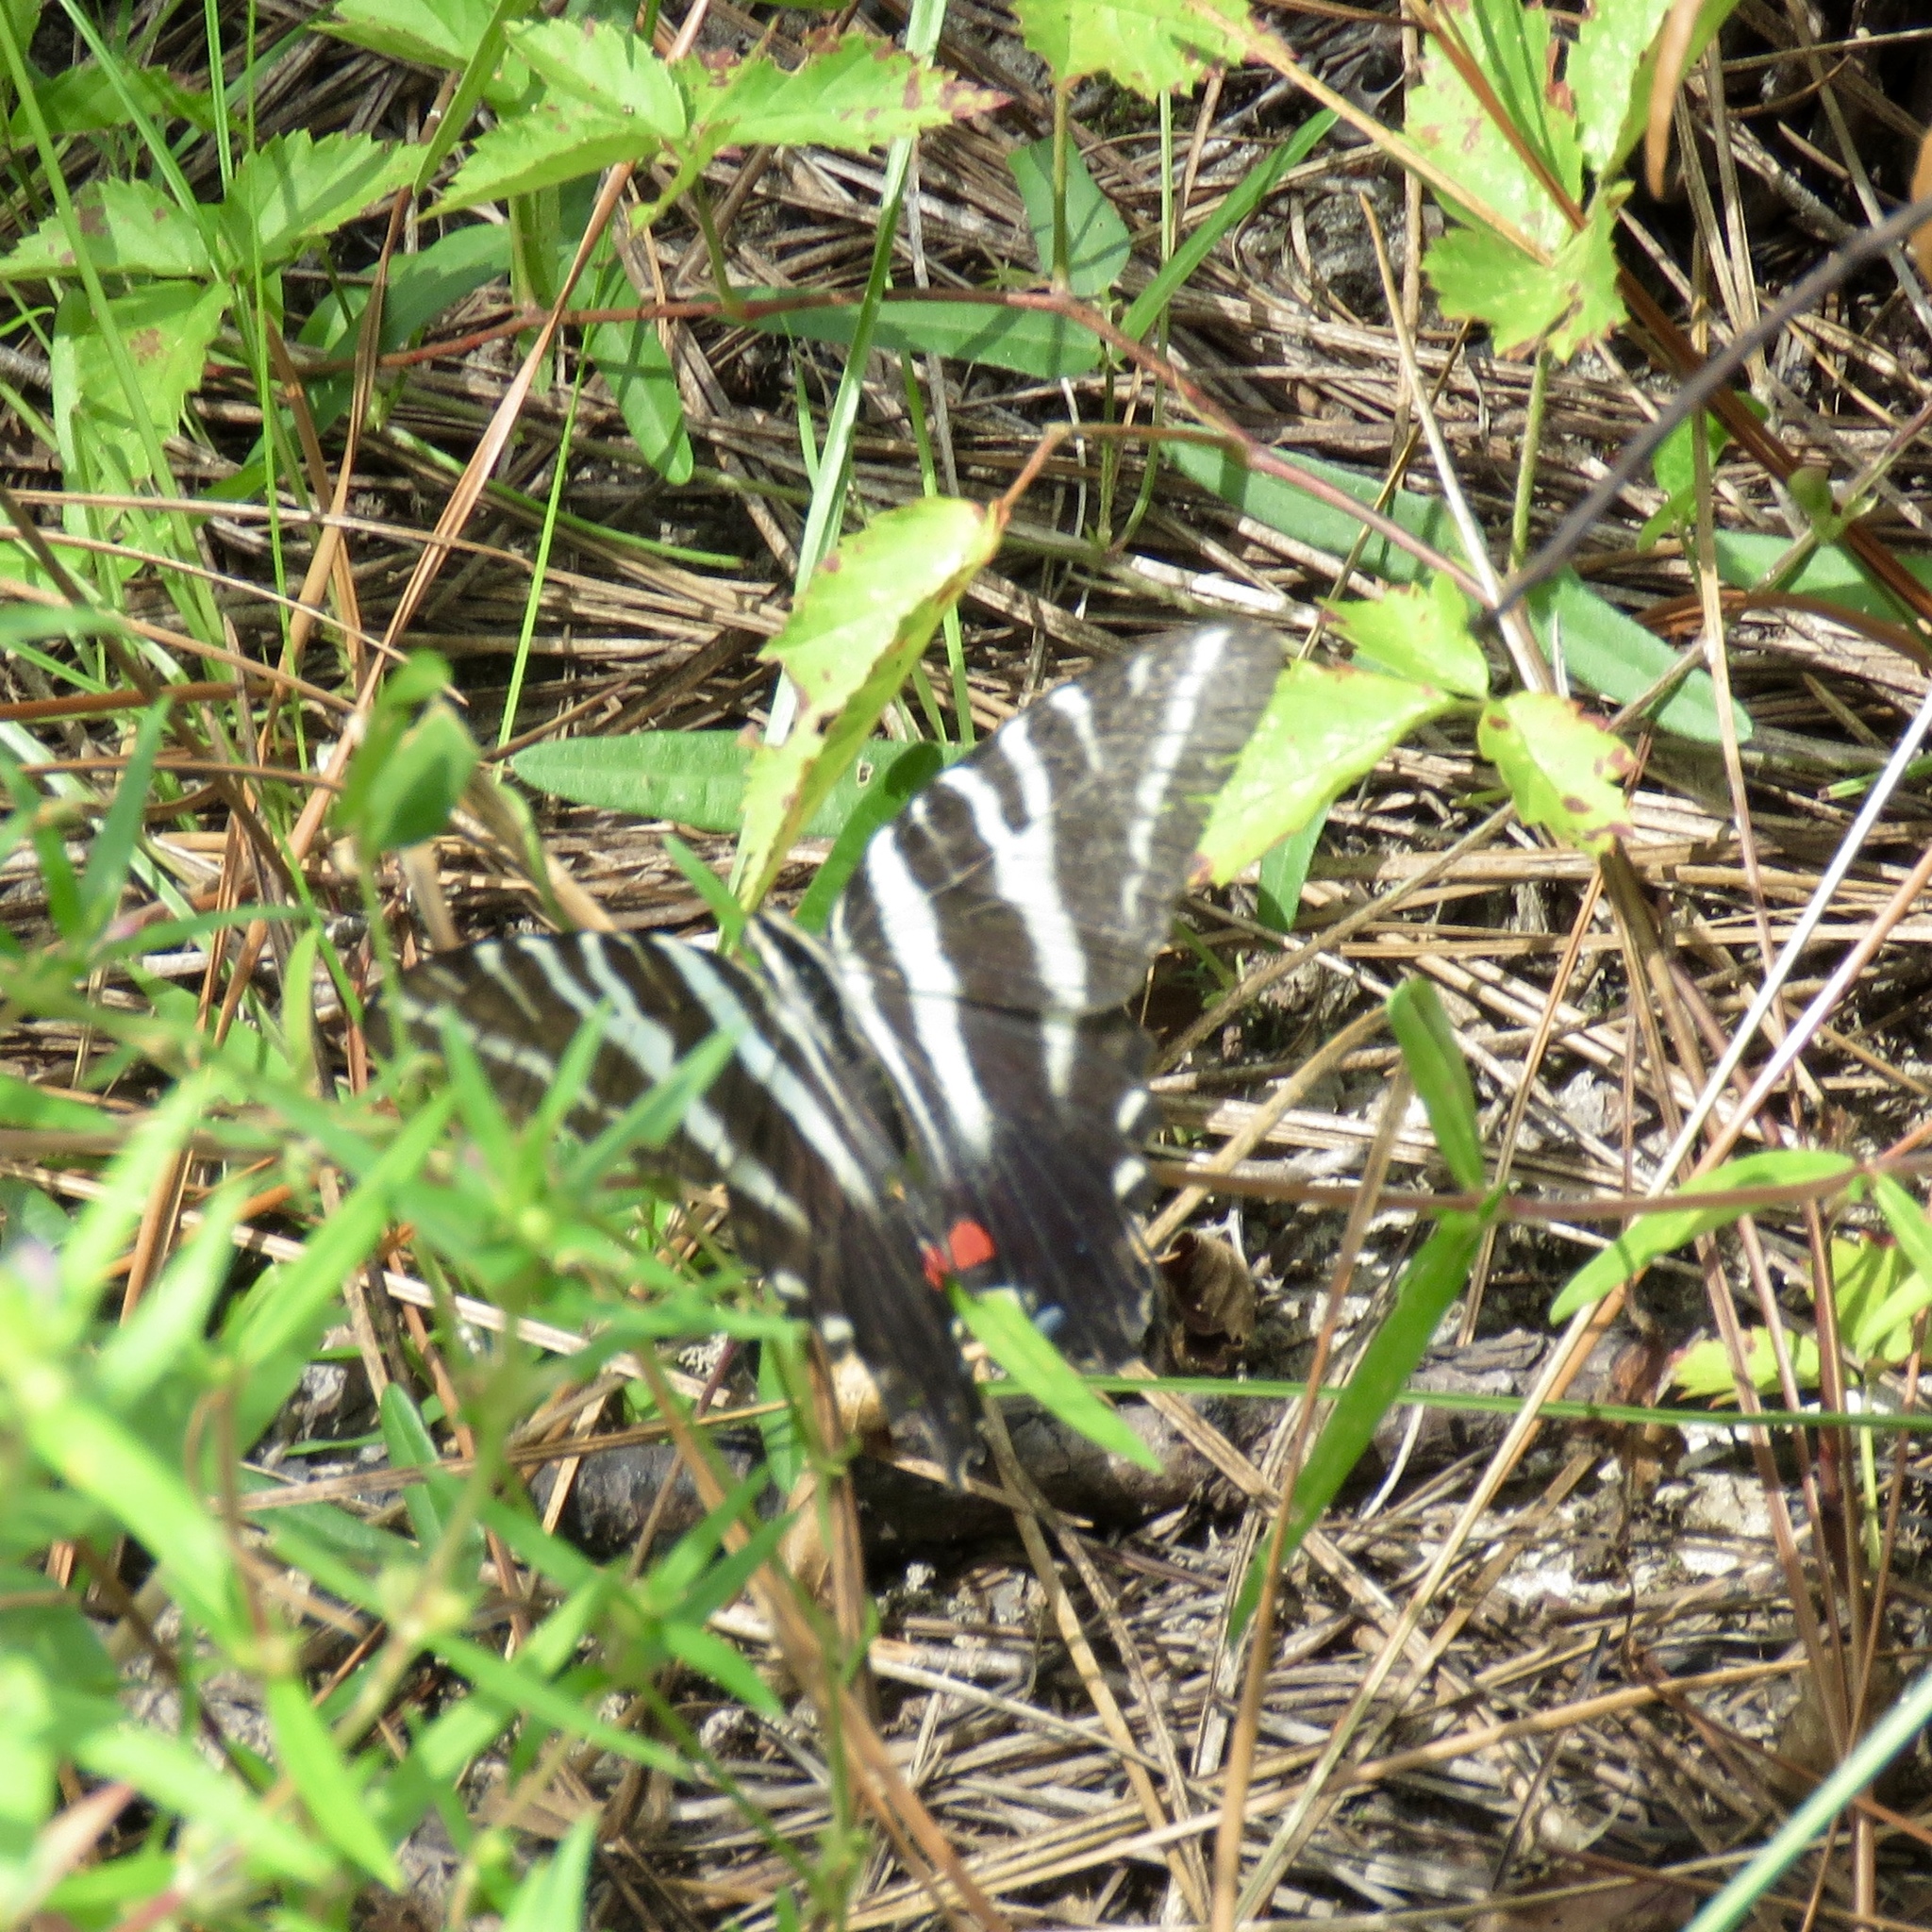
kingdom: Animalia
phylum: Arthropoda
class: Insecta
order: Lepidoptera
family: Papilionidae
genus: Protographium
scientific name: Protographium marcellus
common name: Zebra swallowtail
